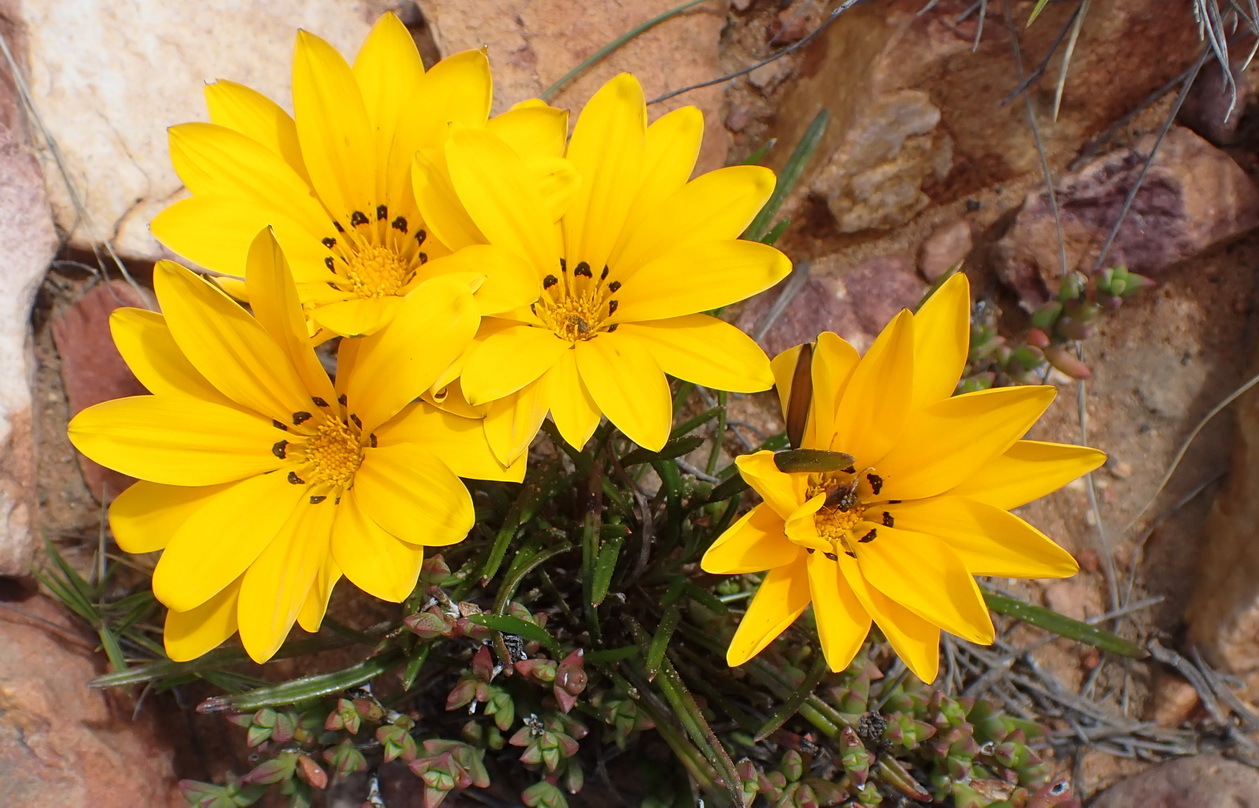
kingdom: Plantae
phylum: Tracheophyta
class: Magnoliopsida
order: Asterales
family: Asteraceae
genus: Gazania
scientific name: Gazania krebsiana
